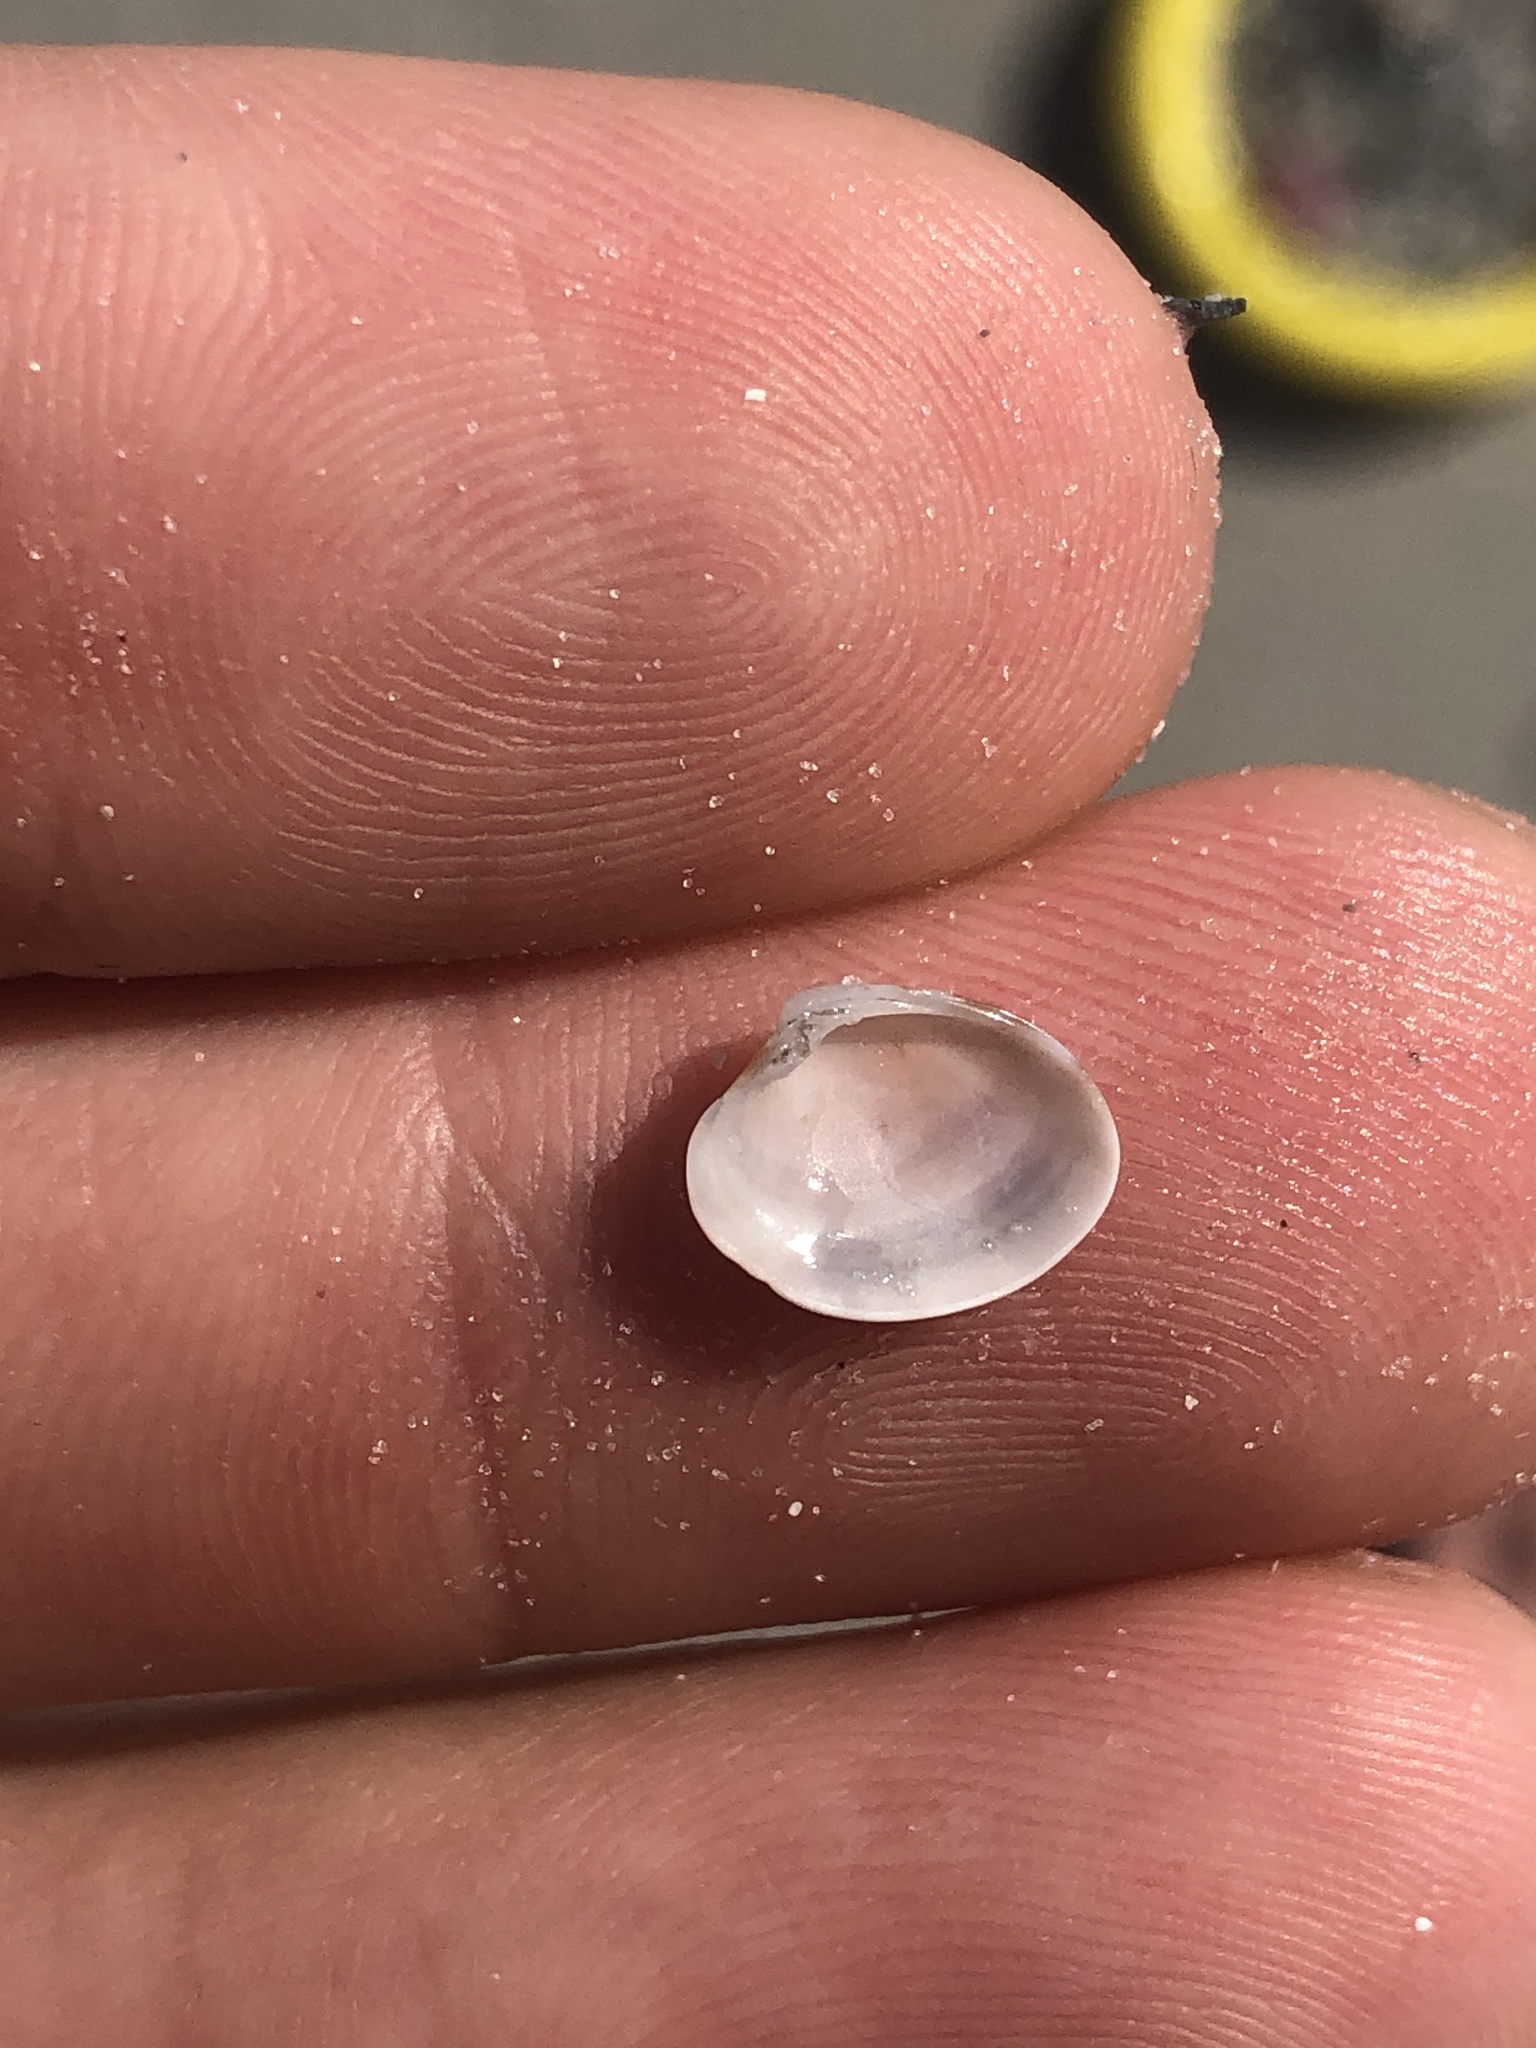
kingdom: Animalia
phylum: Mollusca
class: Bivalvia
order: Venerida
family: Veneridae
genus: Megapitaria
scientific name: Megapitaria maculata
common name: Calico clam
